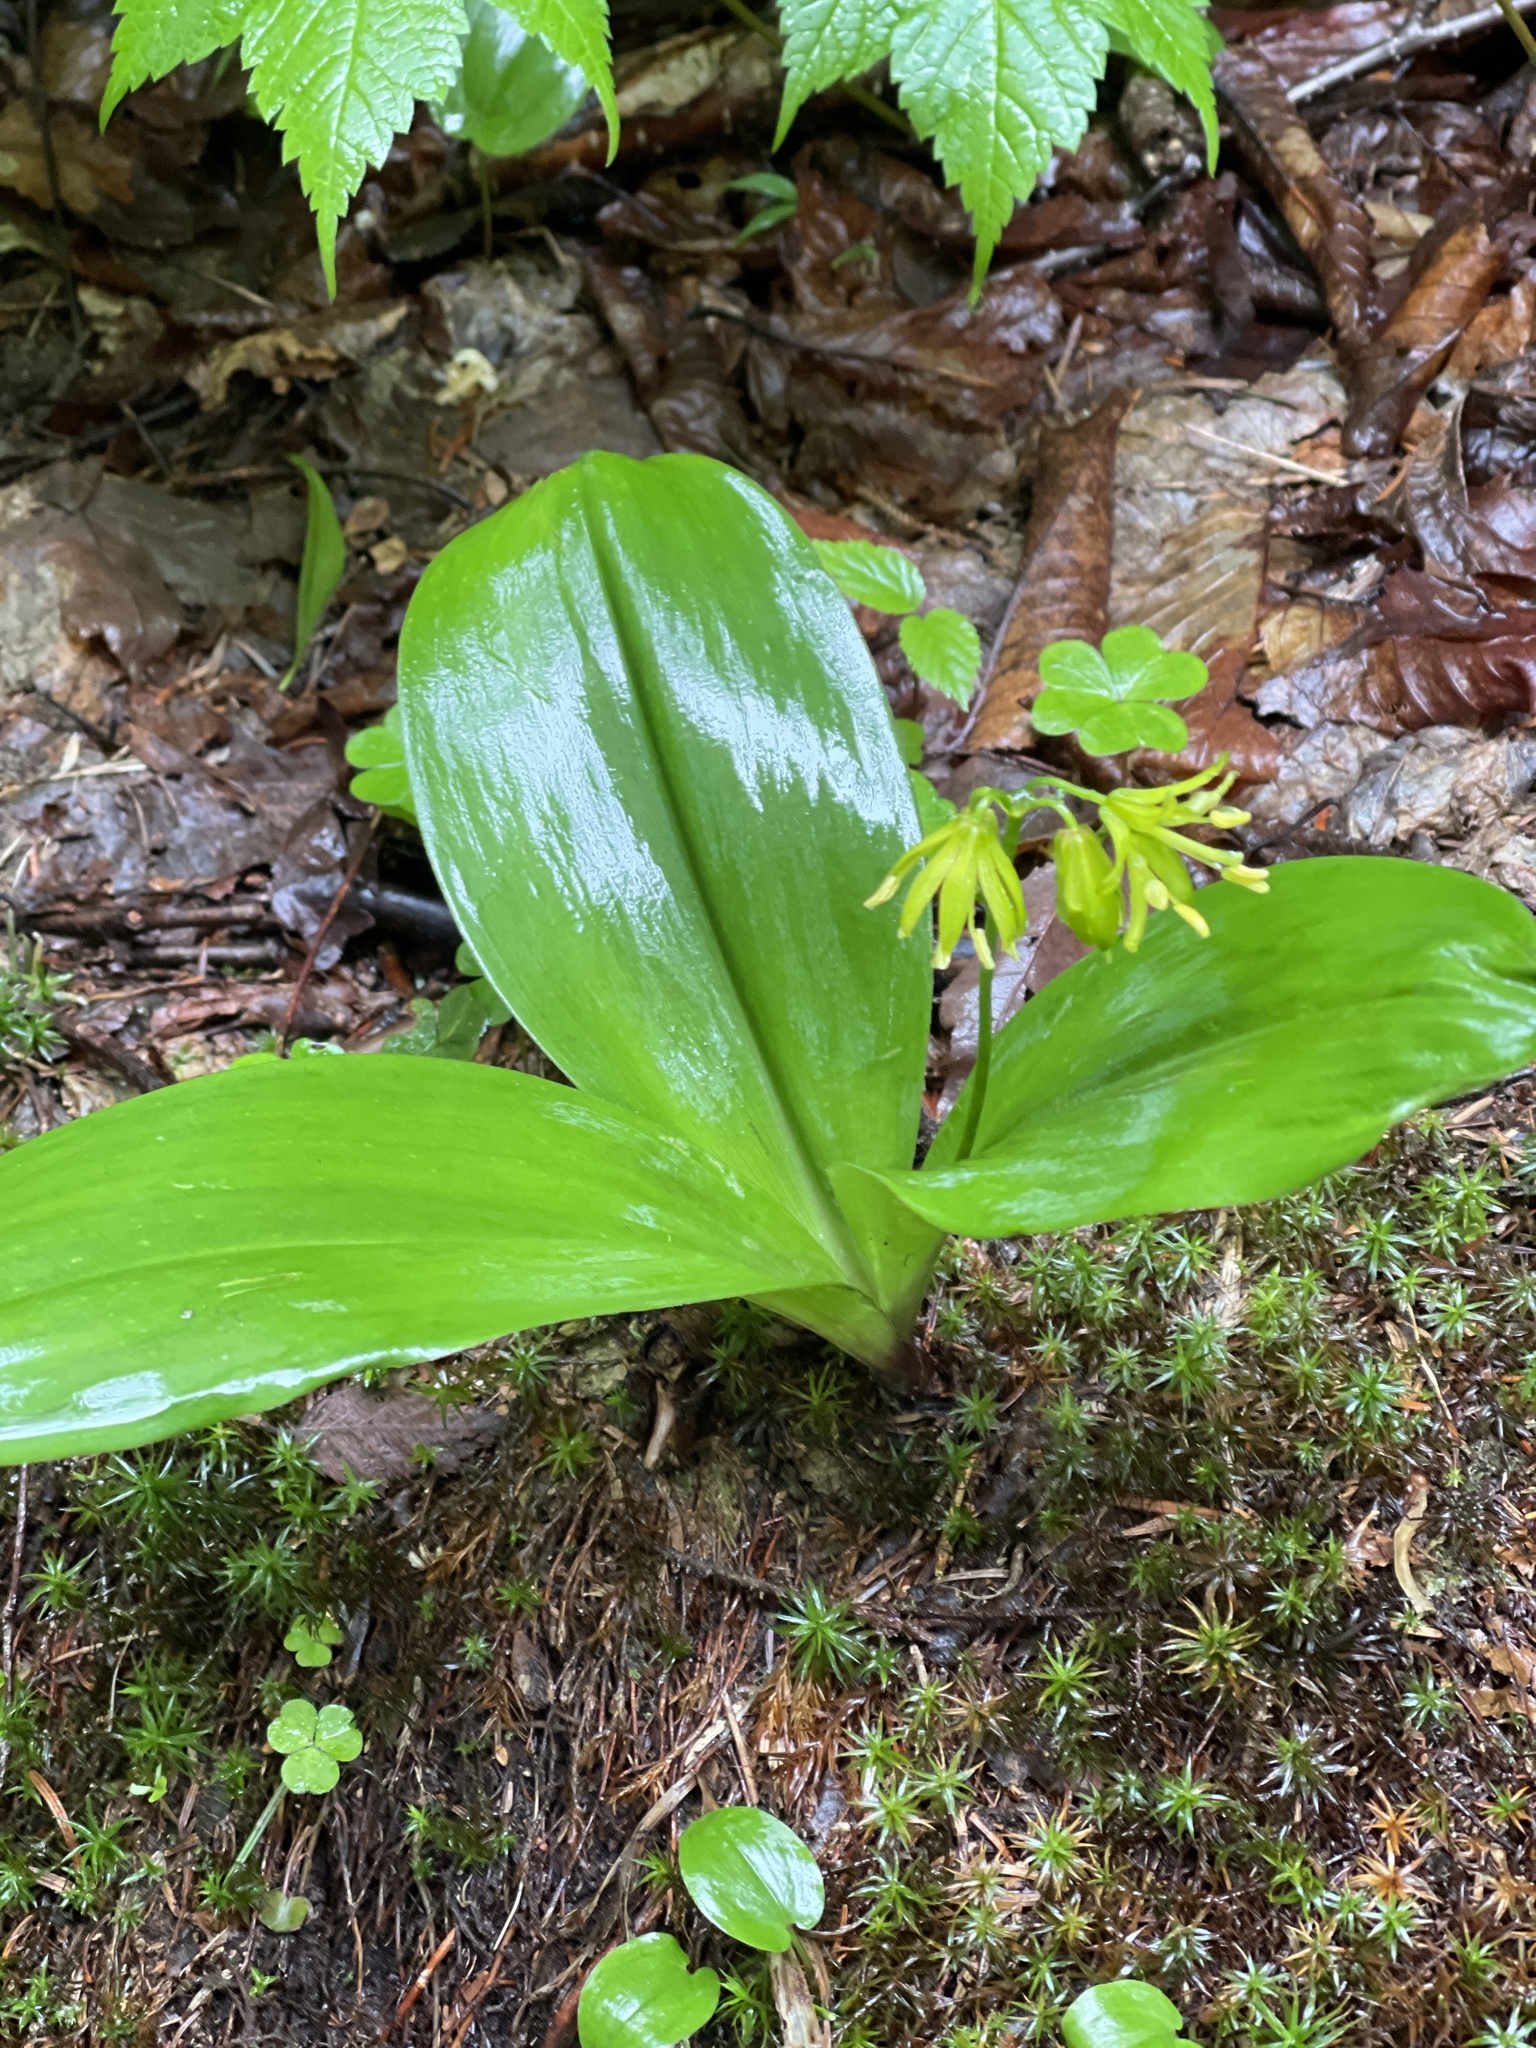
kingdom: Plantae
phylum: Tracheophyta
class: Liliopsida
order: Liliales
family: Liliaceae
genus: Clintonia
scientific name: Clintonia borealis
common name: Yellow clintonia
